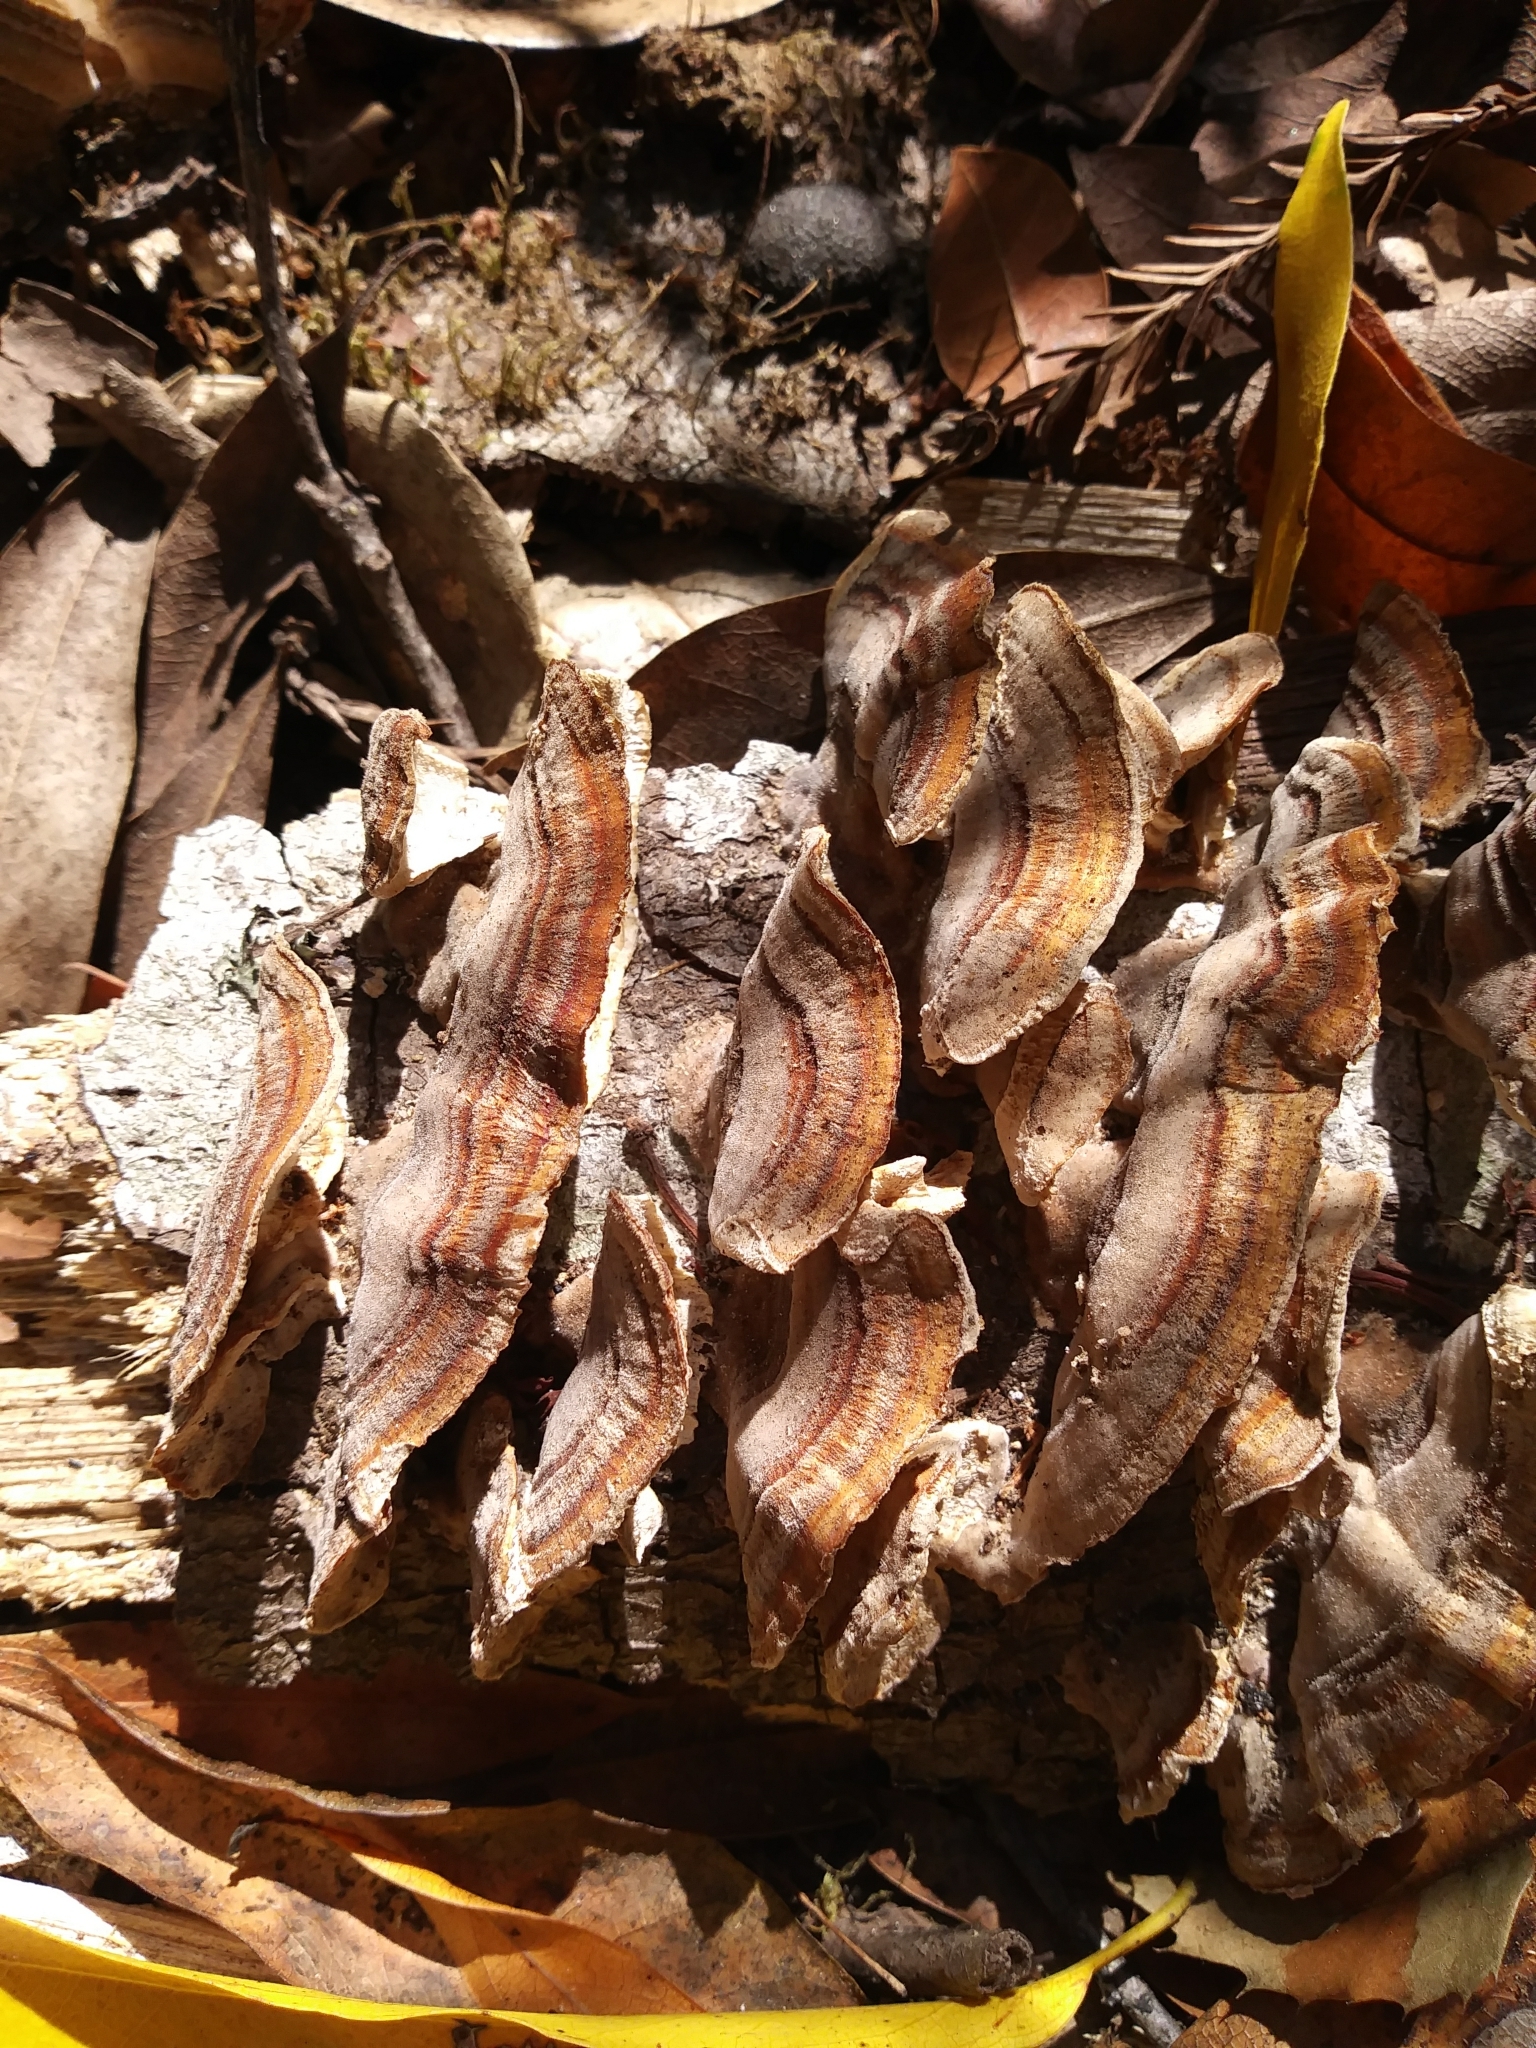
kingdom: Fungi
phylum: Basidiomycota
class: Agaricomycetes
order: Polyporales
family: Polyporaceae
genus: Trametes
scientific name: Trametes versicolor
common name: Turkeytail
